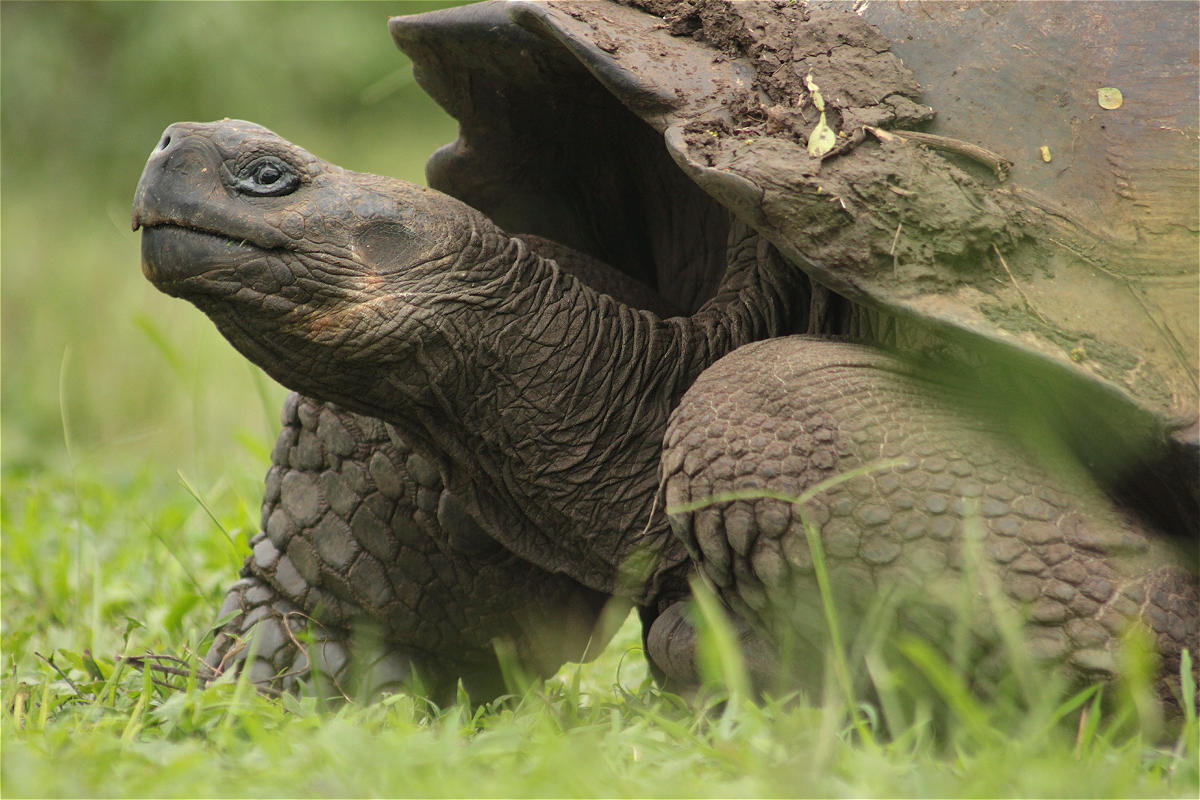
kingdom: Animalia
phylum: Chordata
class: Testudines
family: Testudinidae
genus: Chelonoidis
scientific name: Chelonoidis porteri
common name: Indefatigable island giant tortoise
